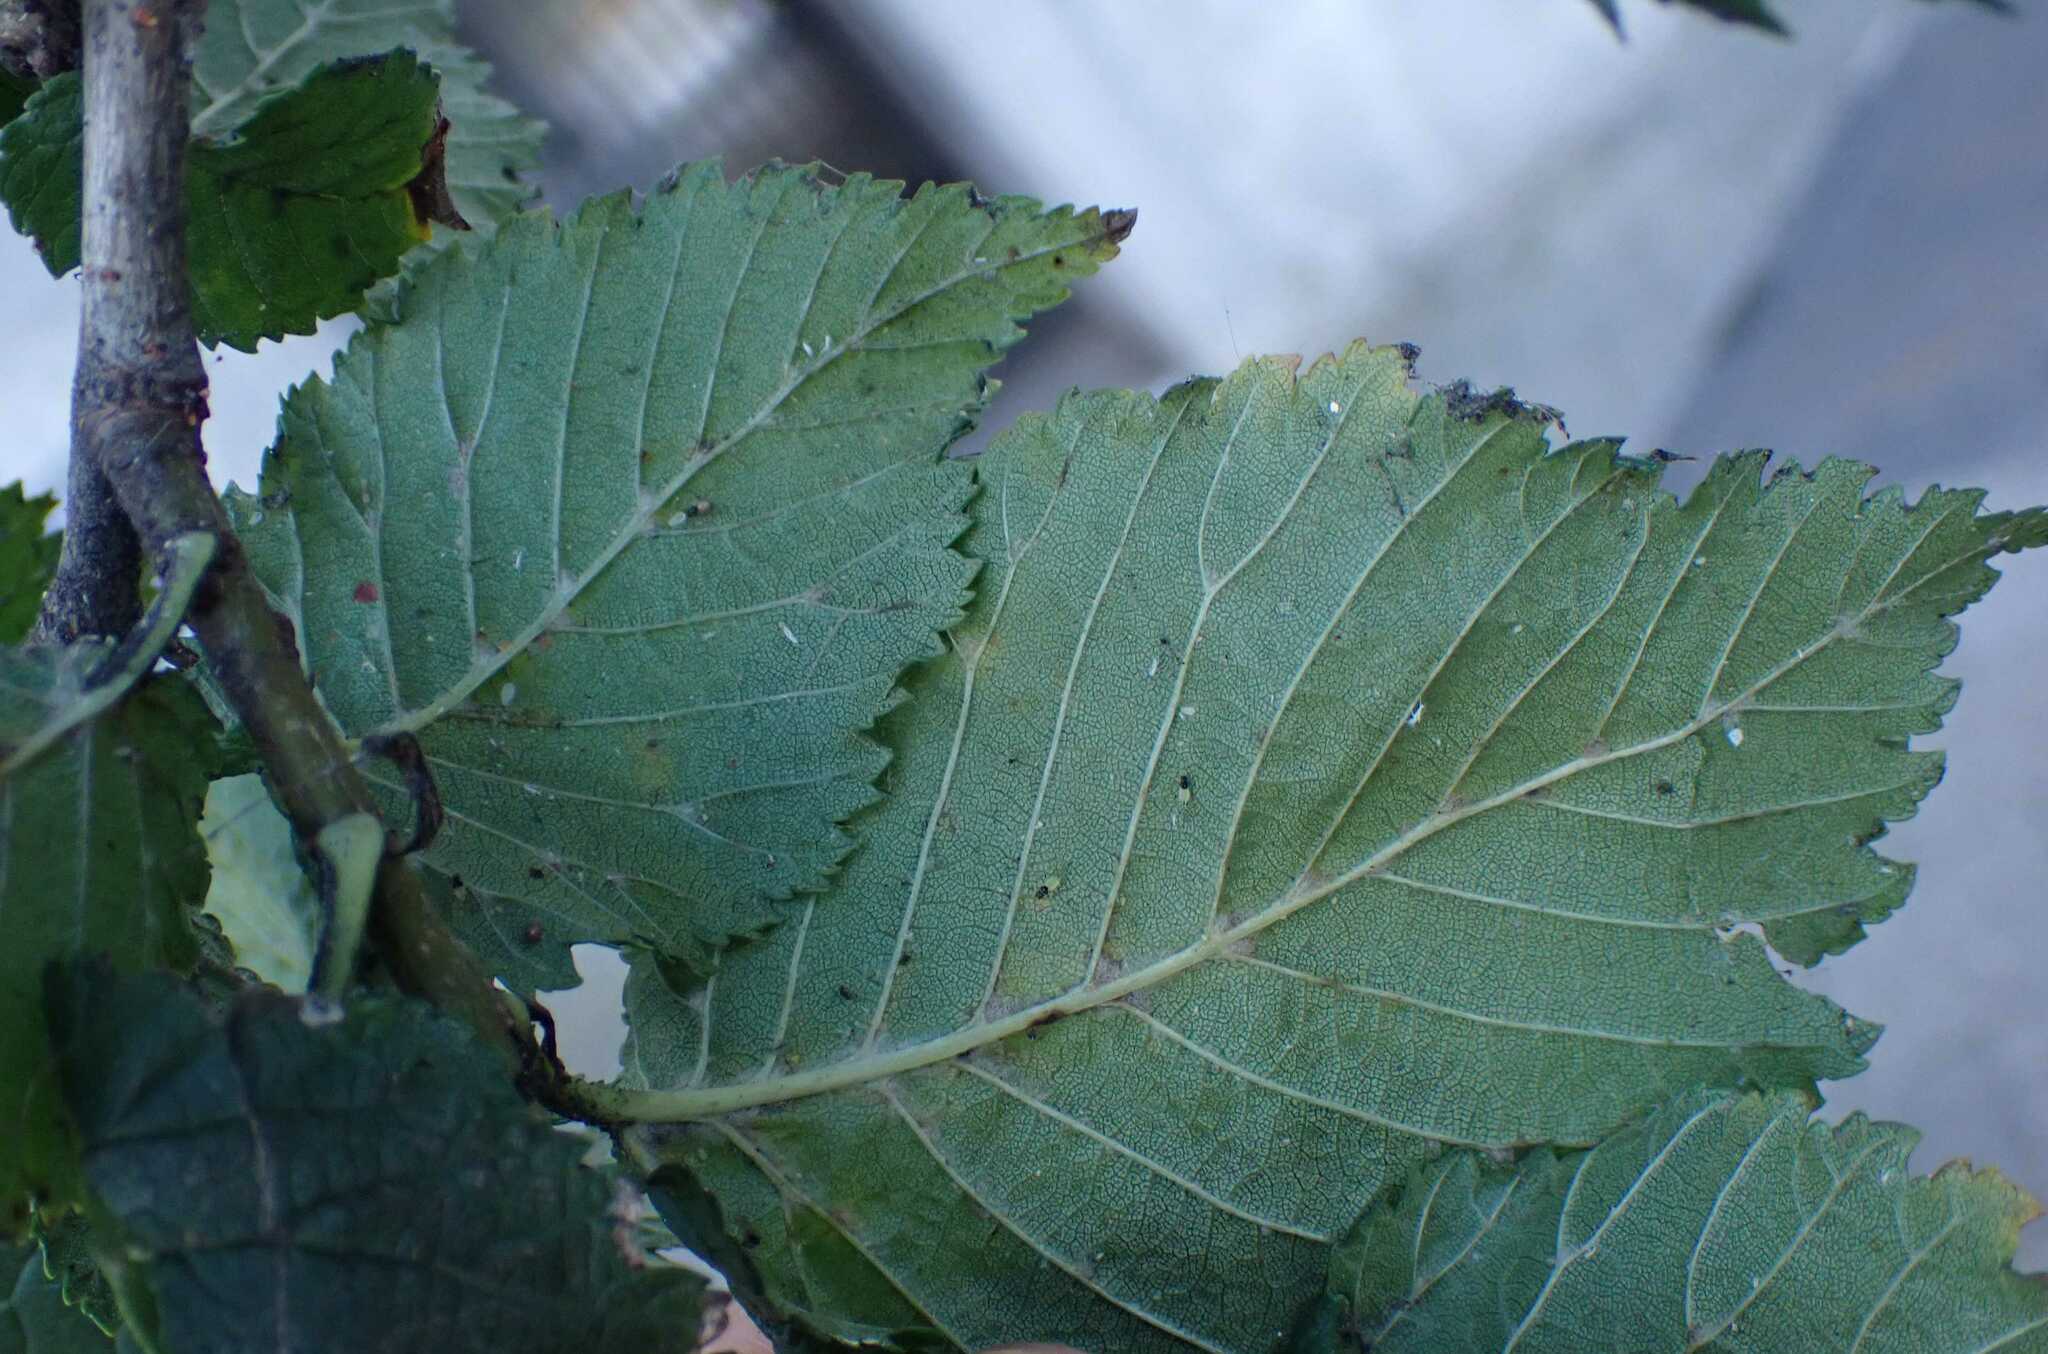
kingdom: Animalia
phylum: Arthropoda
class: Insecta
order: Hemiptera
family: Aphididae
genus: Tinocallis
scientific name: Tinocallis takachihoensis
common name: Aphid
